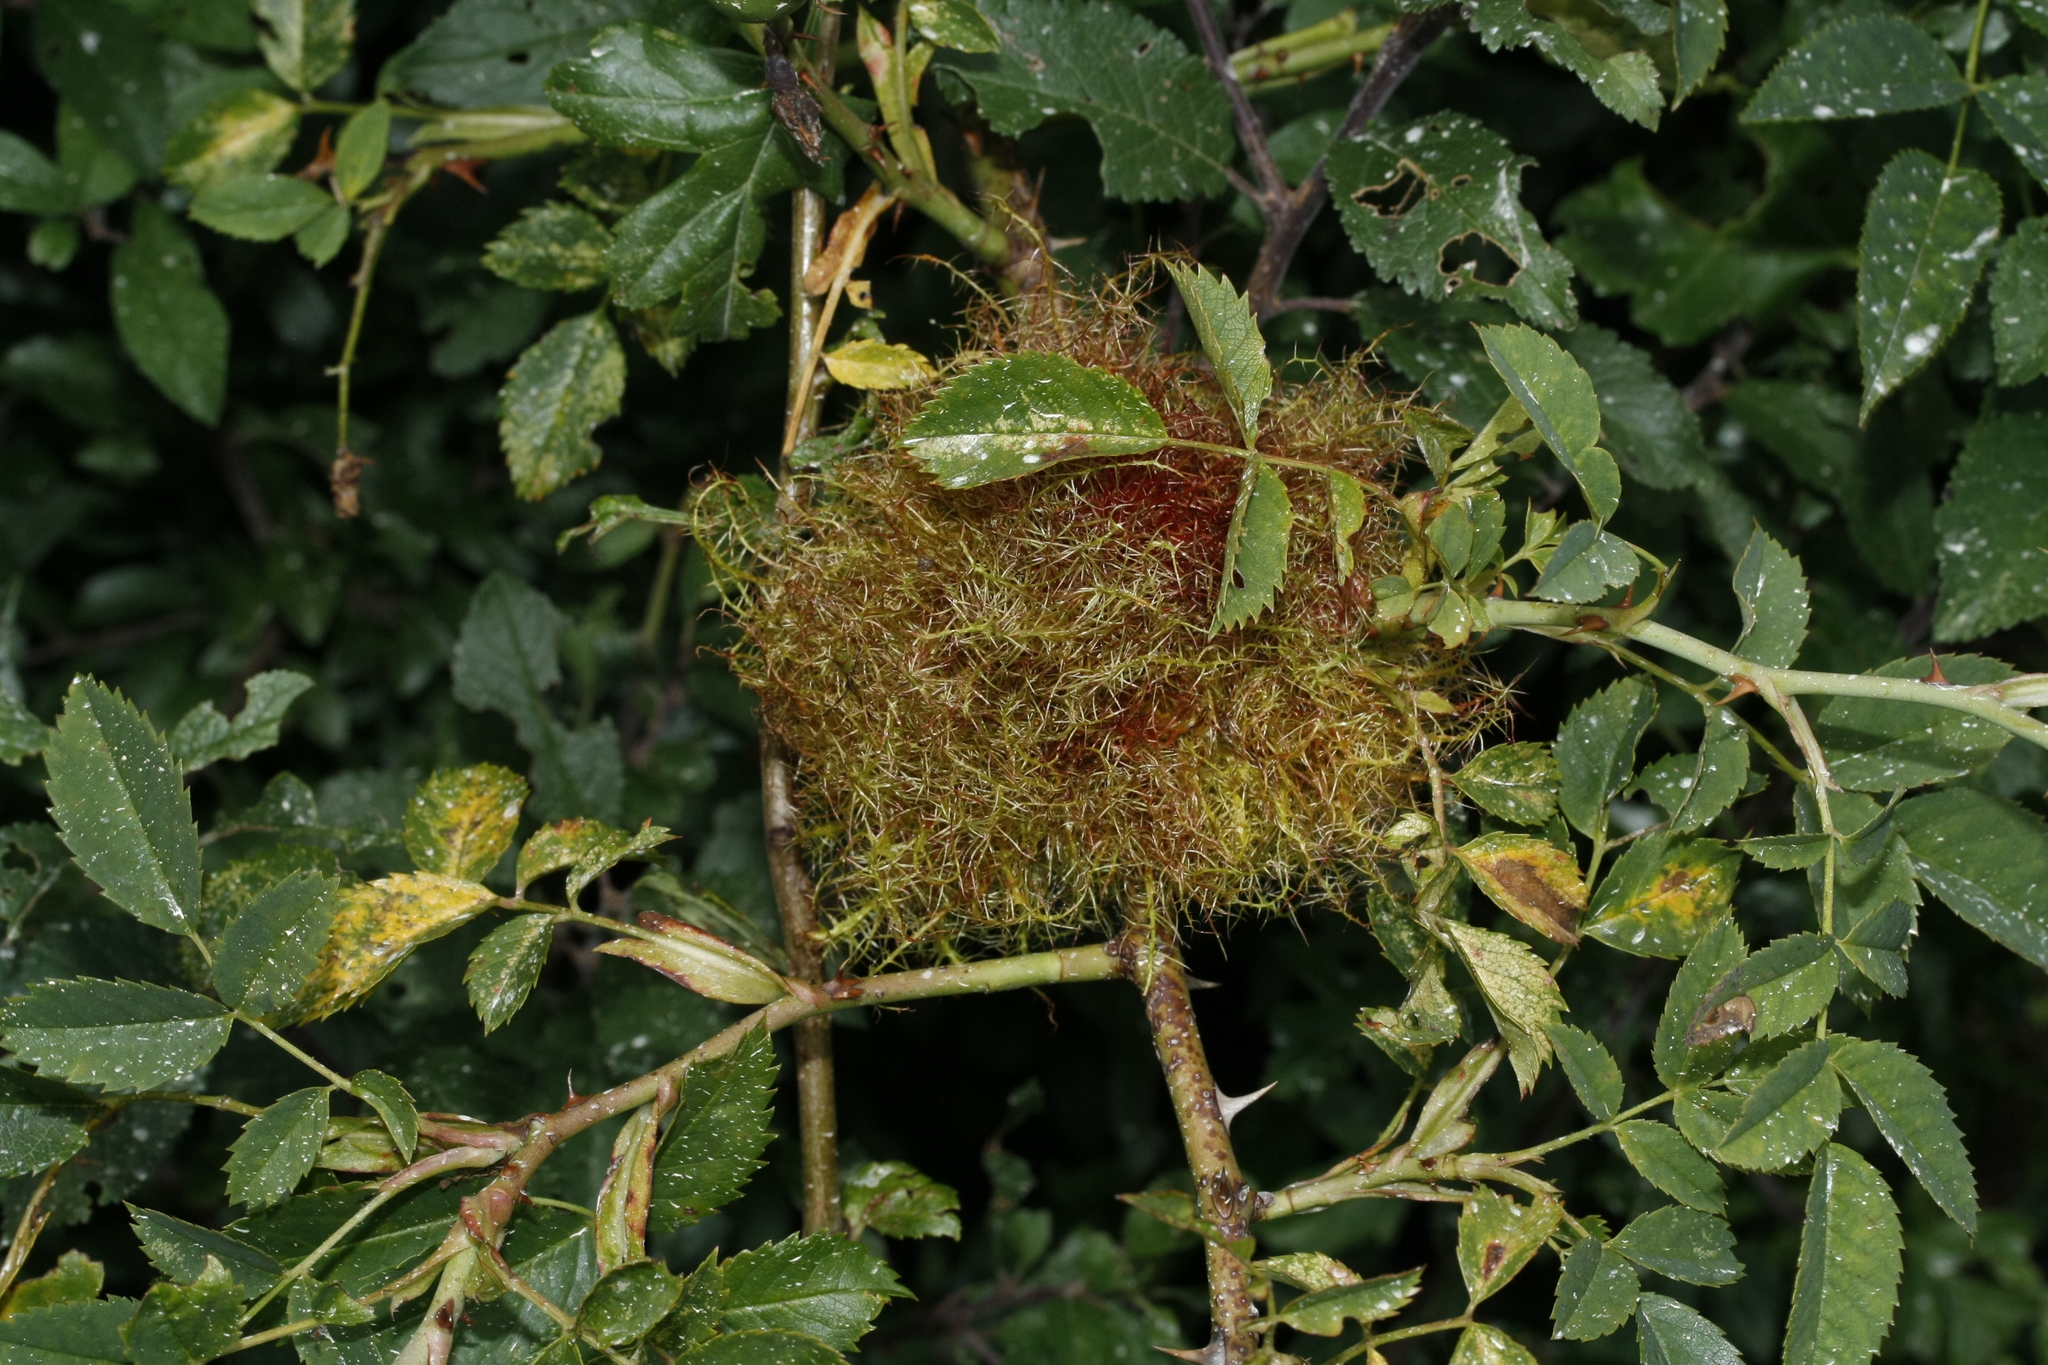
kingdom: Animalia
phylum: Arthropoda
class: Insecta
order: Hymenoptera
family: Cynipidae
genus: Diplolepis
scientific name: Diplolepis rosae
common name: Bedeguar gall
